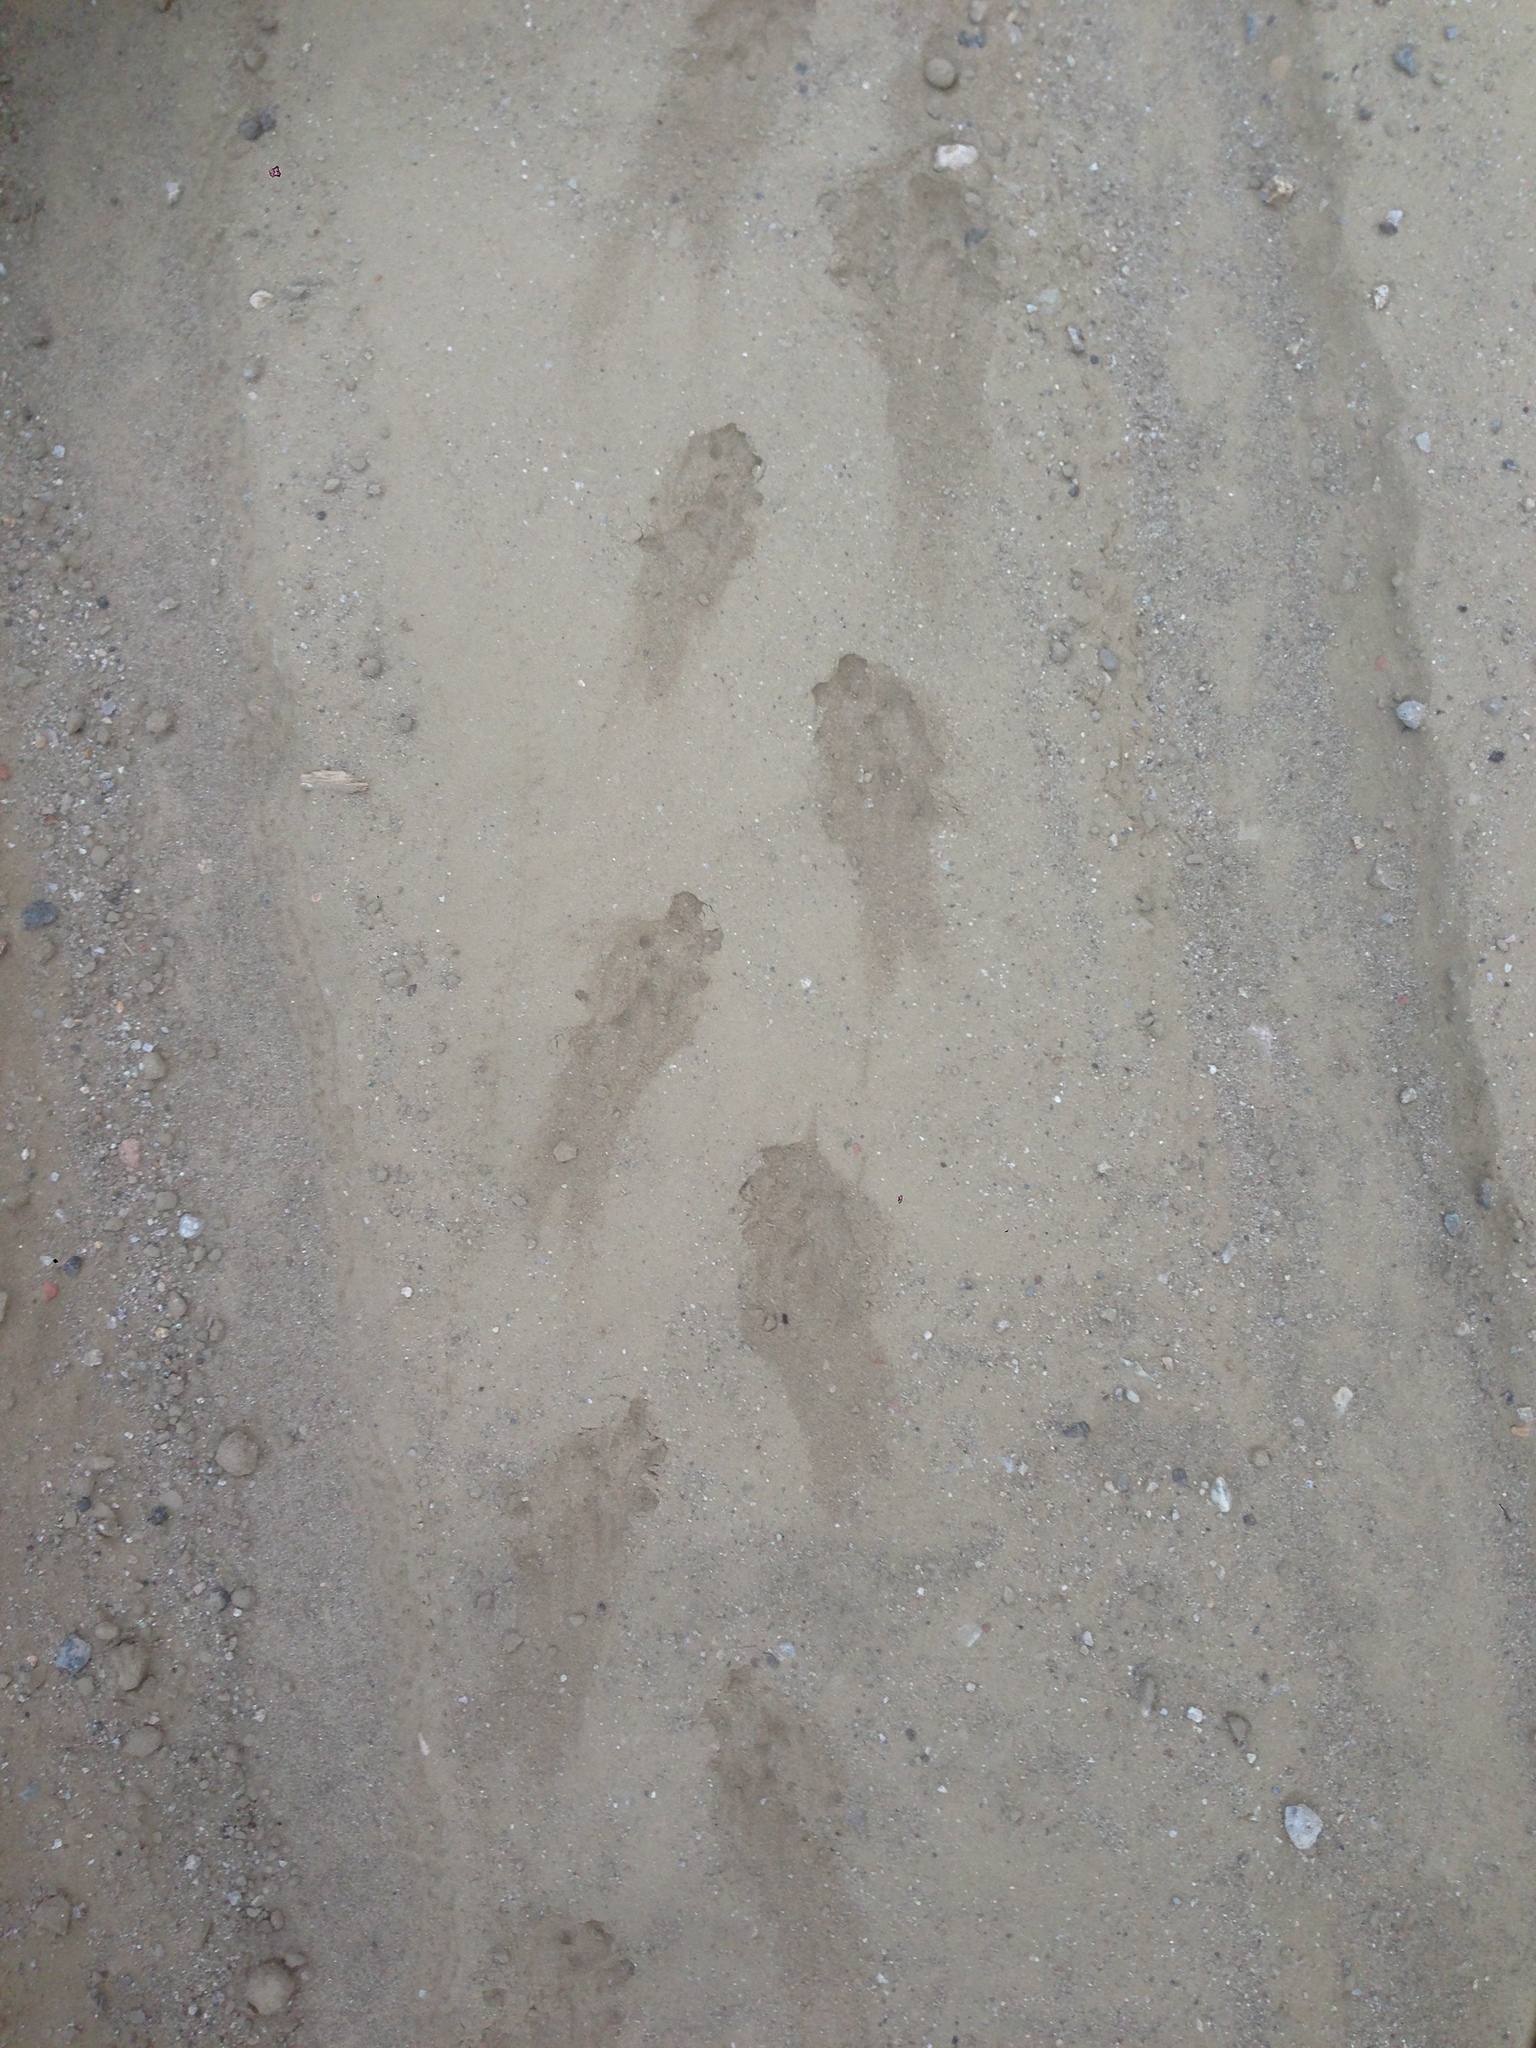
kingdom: Animalia
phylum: Chordata
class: Amphibia
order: Anura
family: Bufonidae
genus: Anaxyrus
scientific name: Anaxyrus boreas
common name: Western toad
